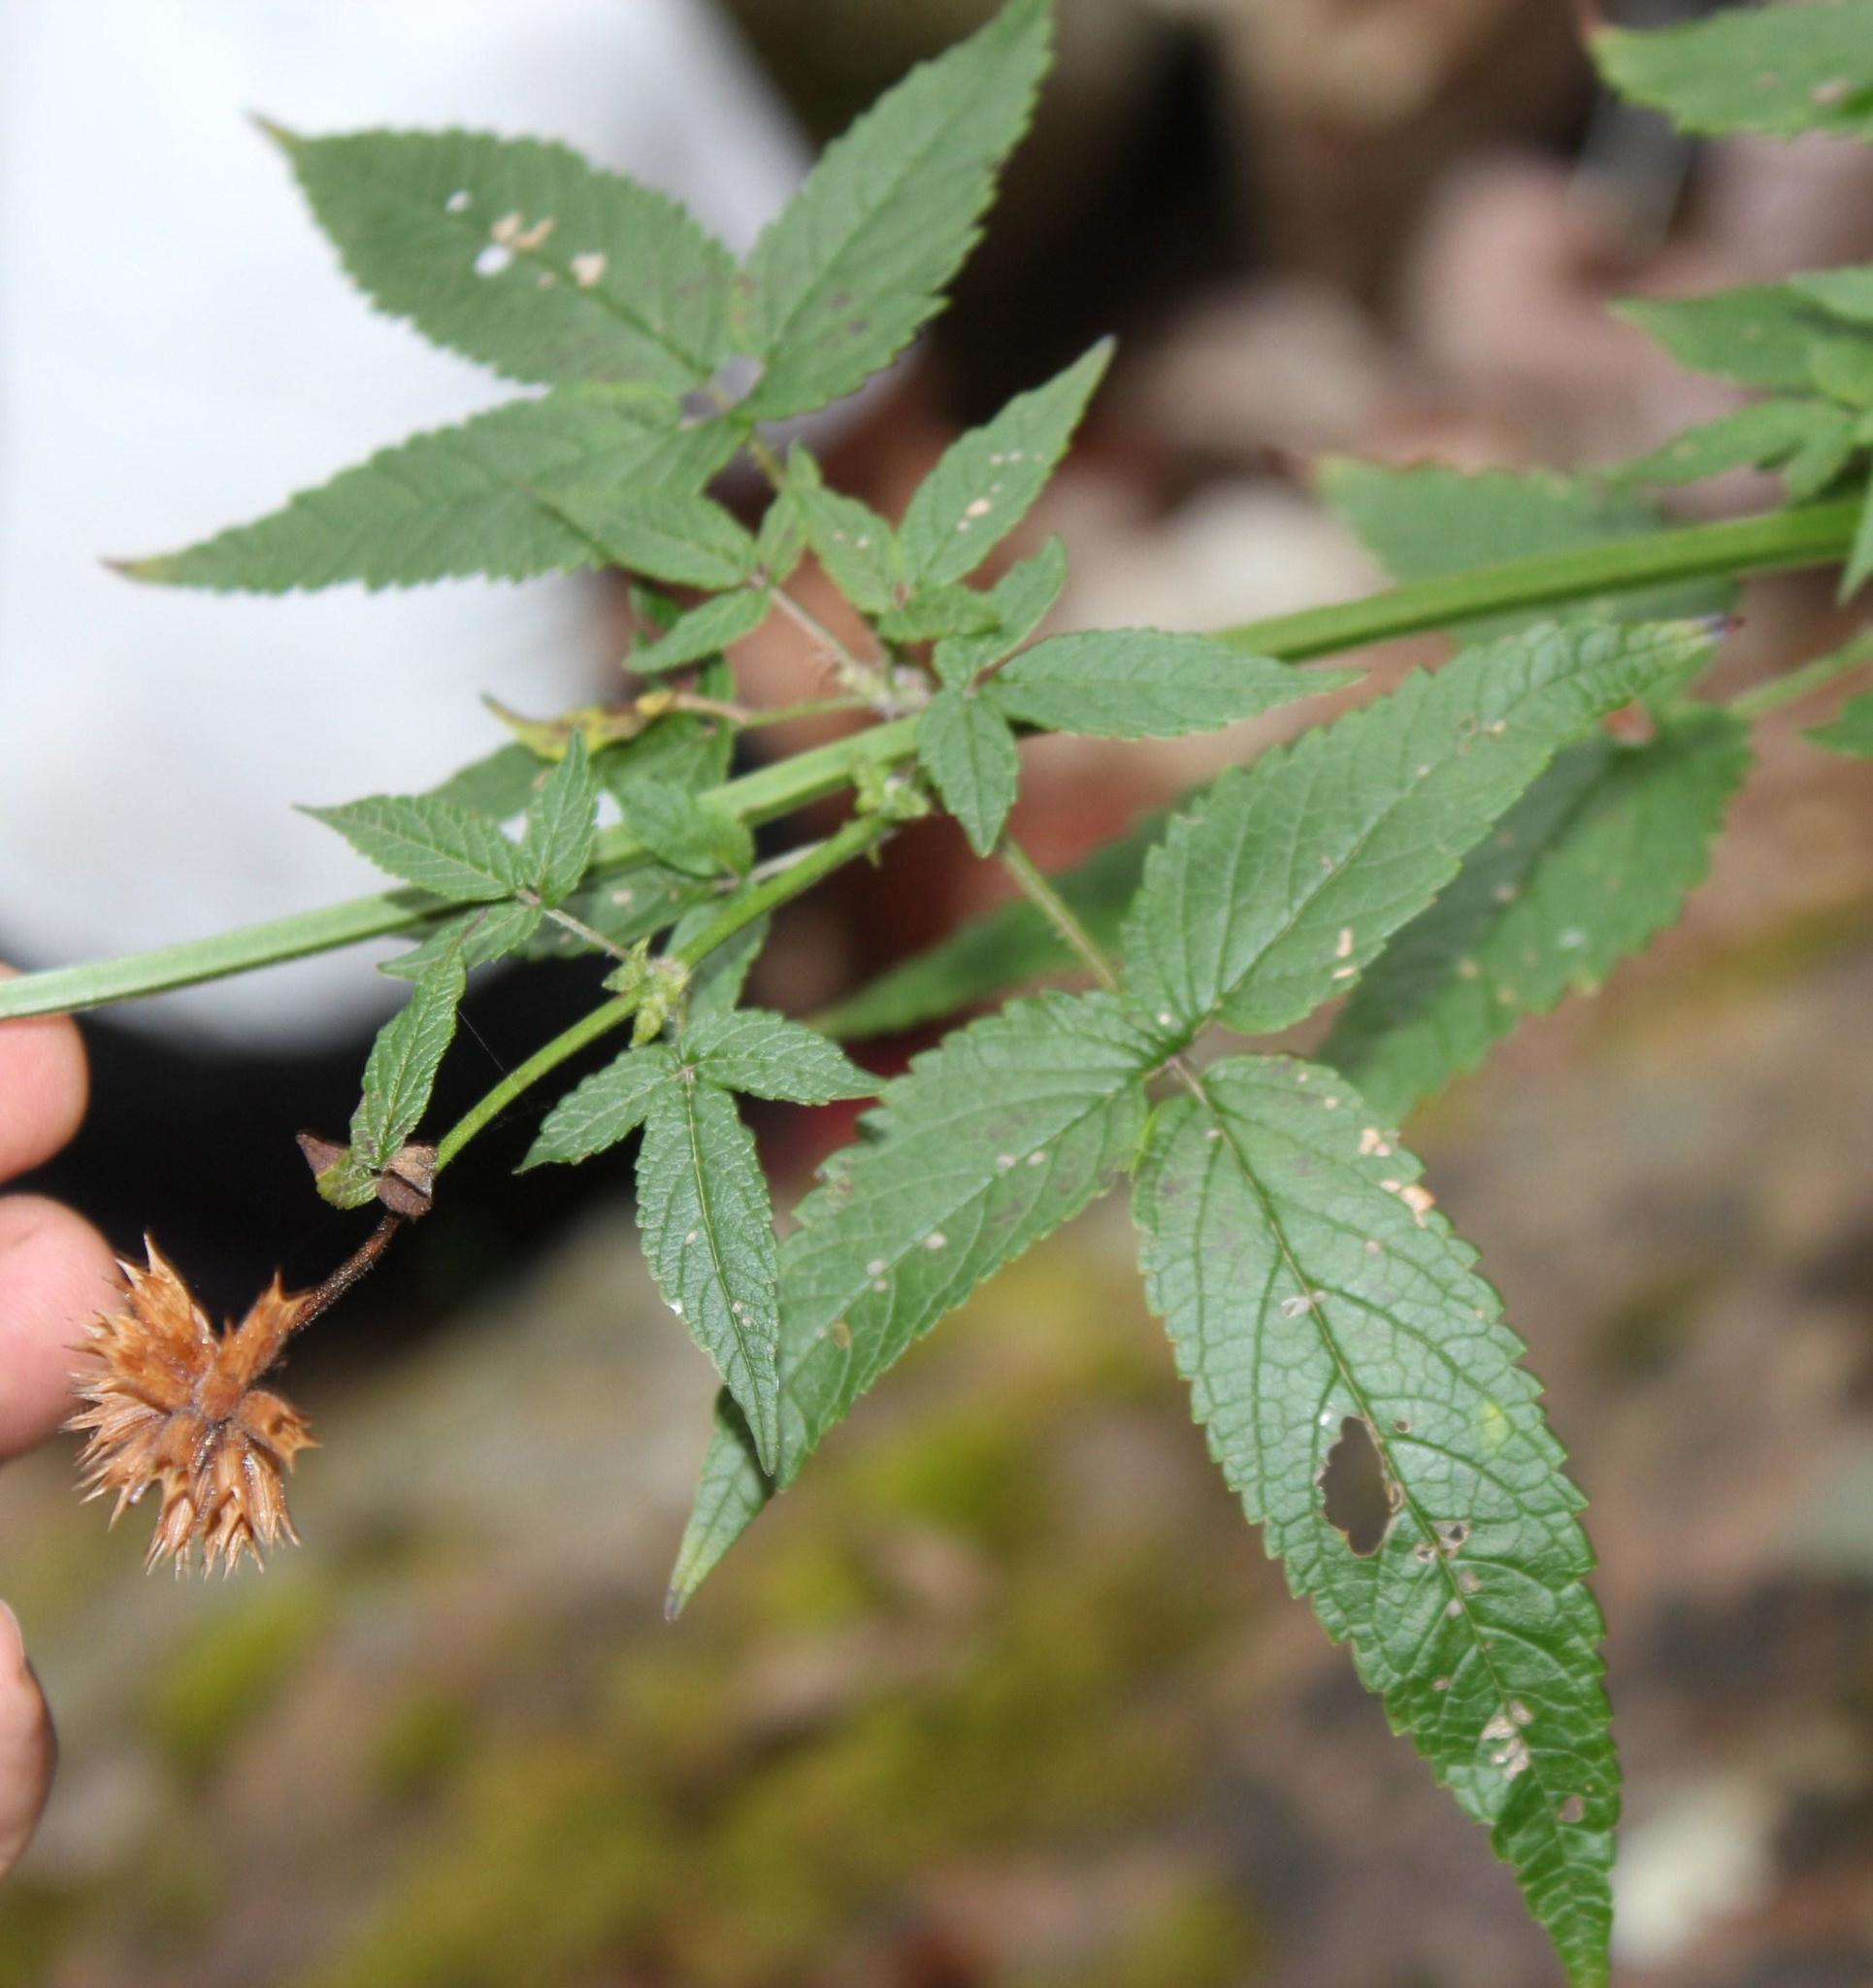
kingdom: Plantae
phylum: Tracheophyta
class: Magnoliopsida
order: Lamiales
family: Lamiaceae
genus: Cedronella
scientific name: Cedronella canariensis
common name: Canary islands balm
